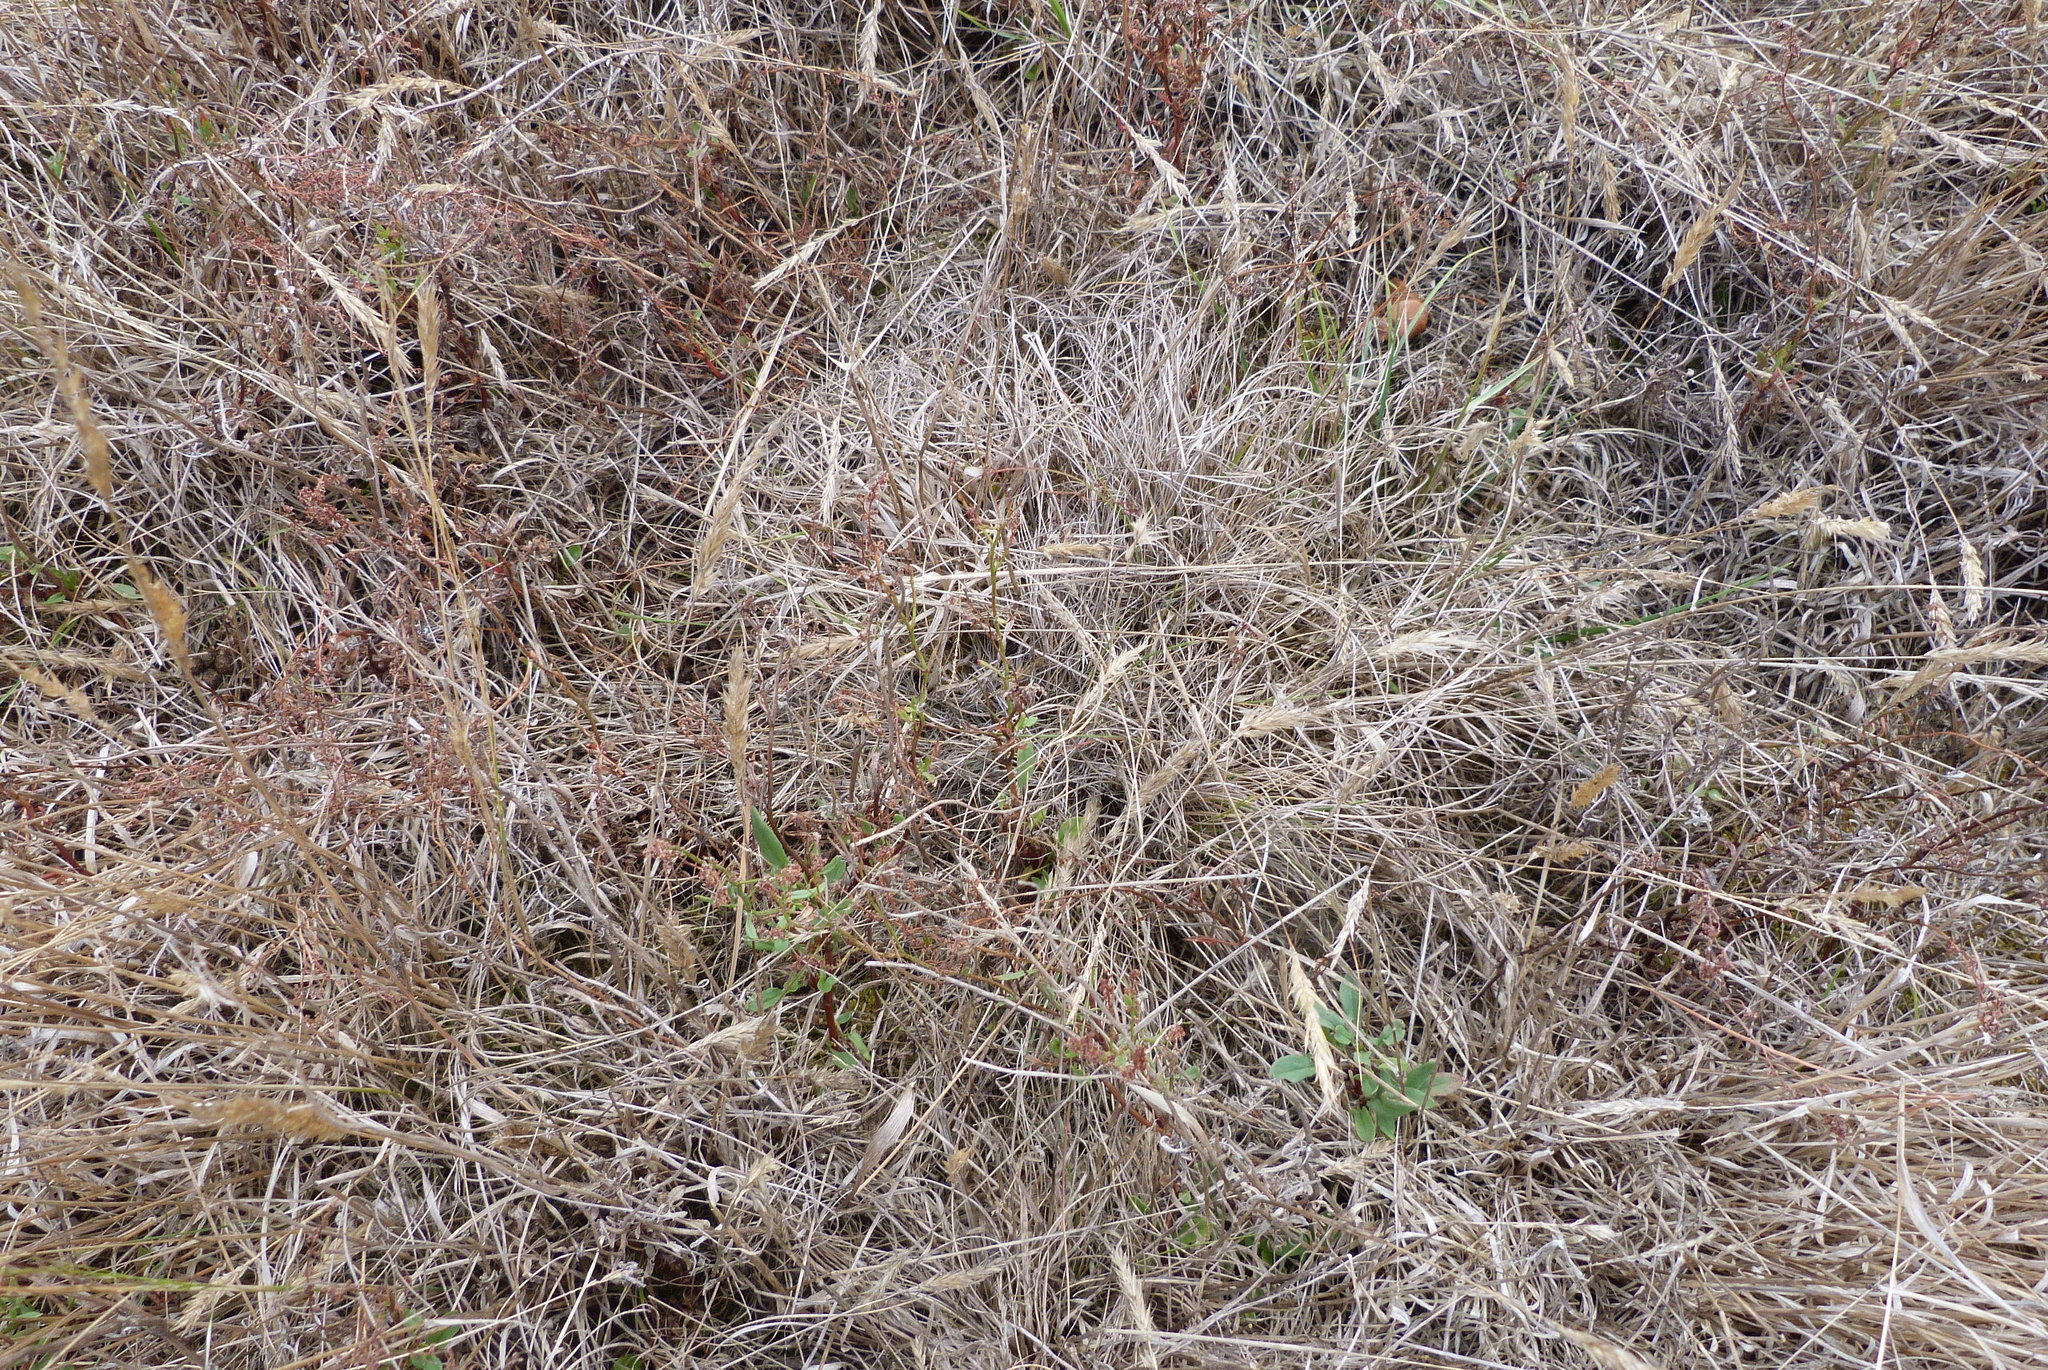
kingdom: Plantae
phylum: Tracheophyta
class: Liliopsida
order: Poales
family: Poaceae
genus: Anthoxanthum
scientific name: Anthoxanthum odoratum
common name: Sweet vernalgrass
